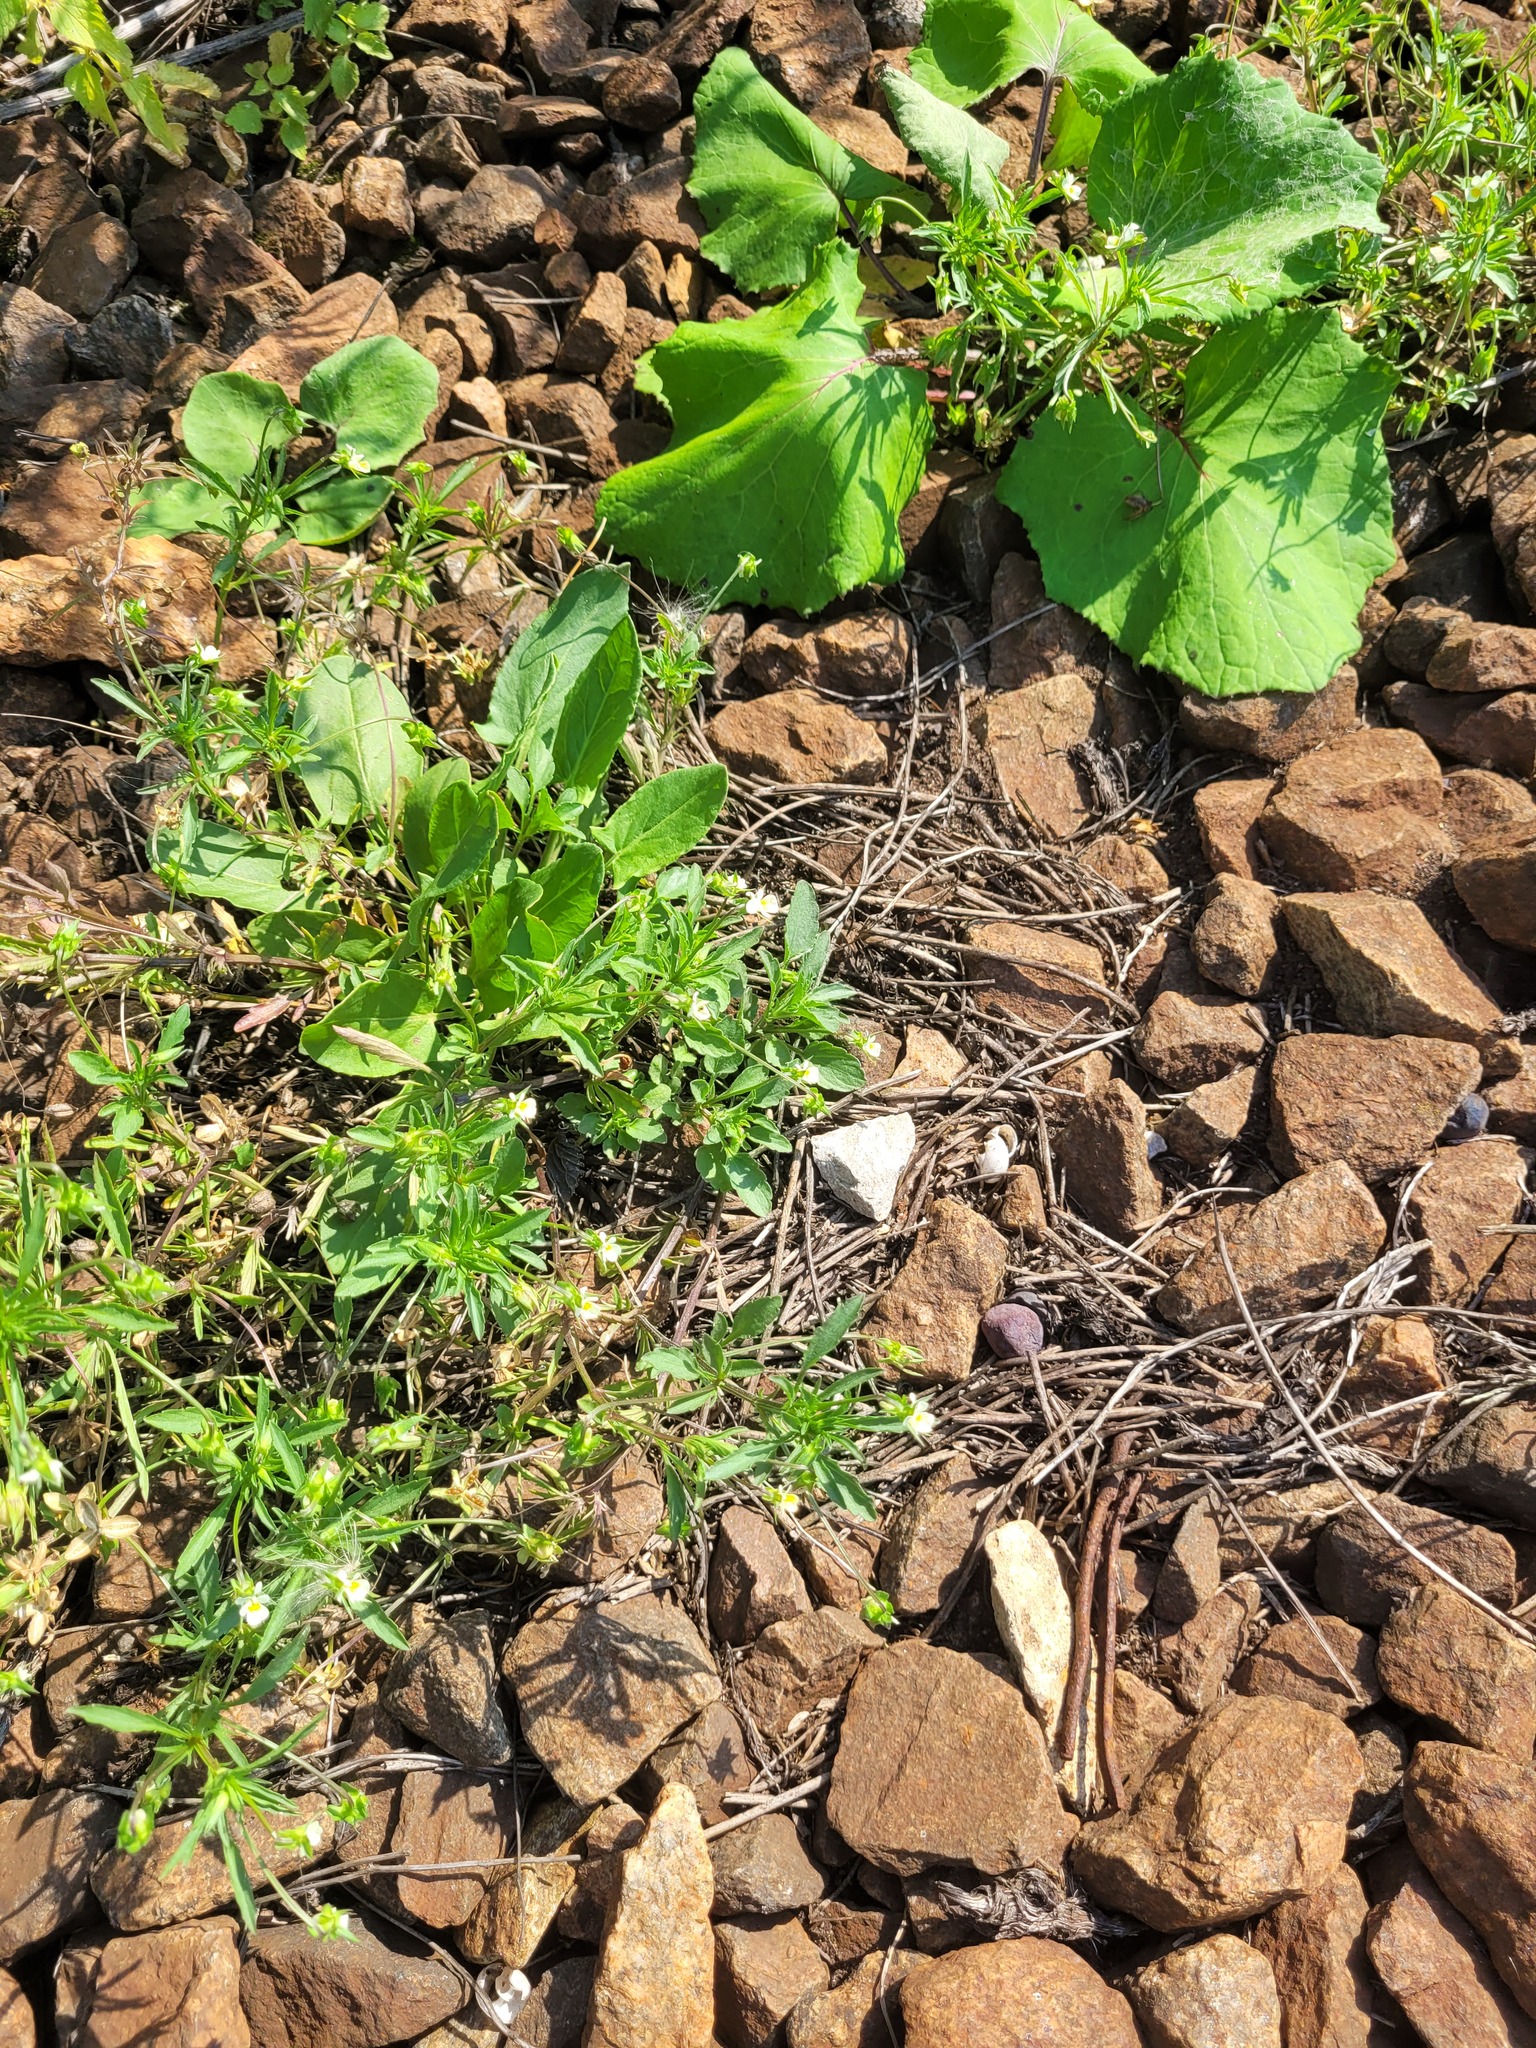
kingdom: Plantae
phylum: Tracheophyta
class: Magnoliopsida
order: Malpighiales
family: Violaceae
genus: Viola
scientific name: Viola arvensis
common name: Field pansy
